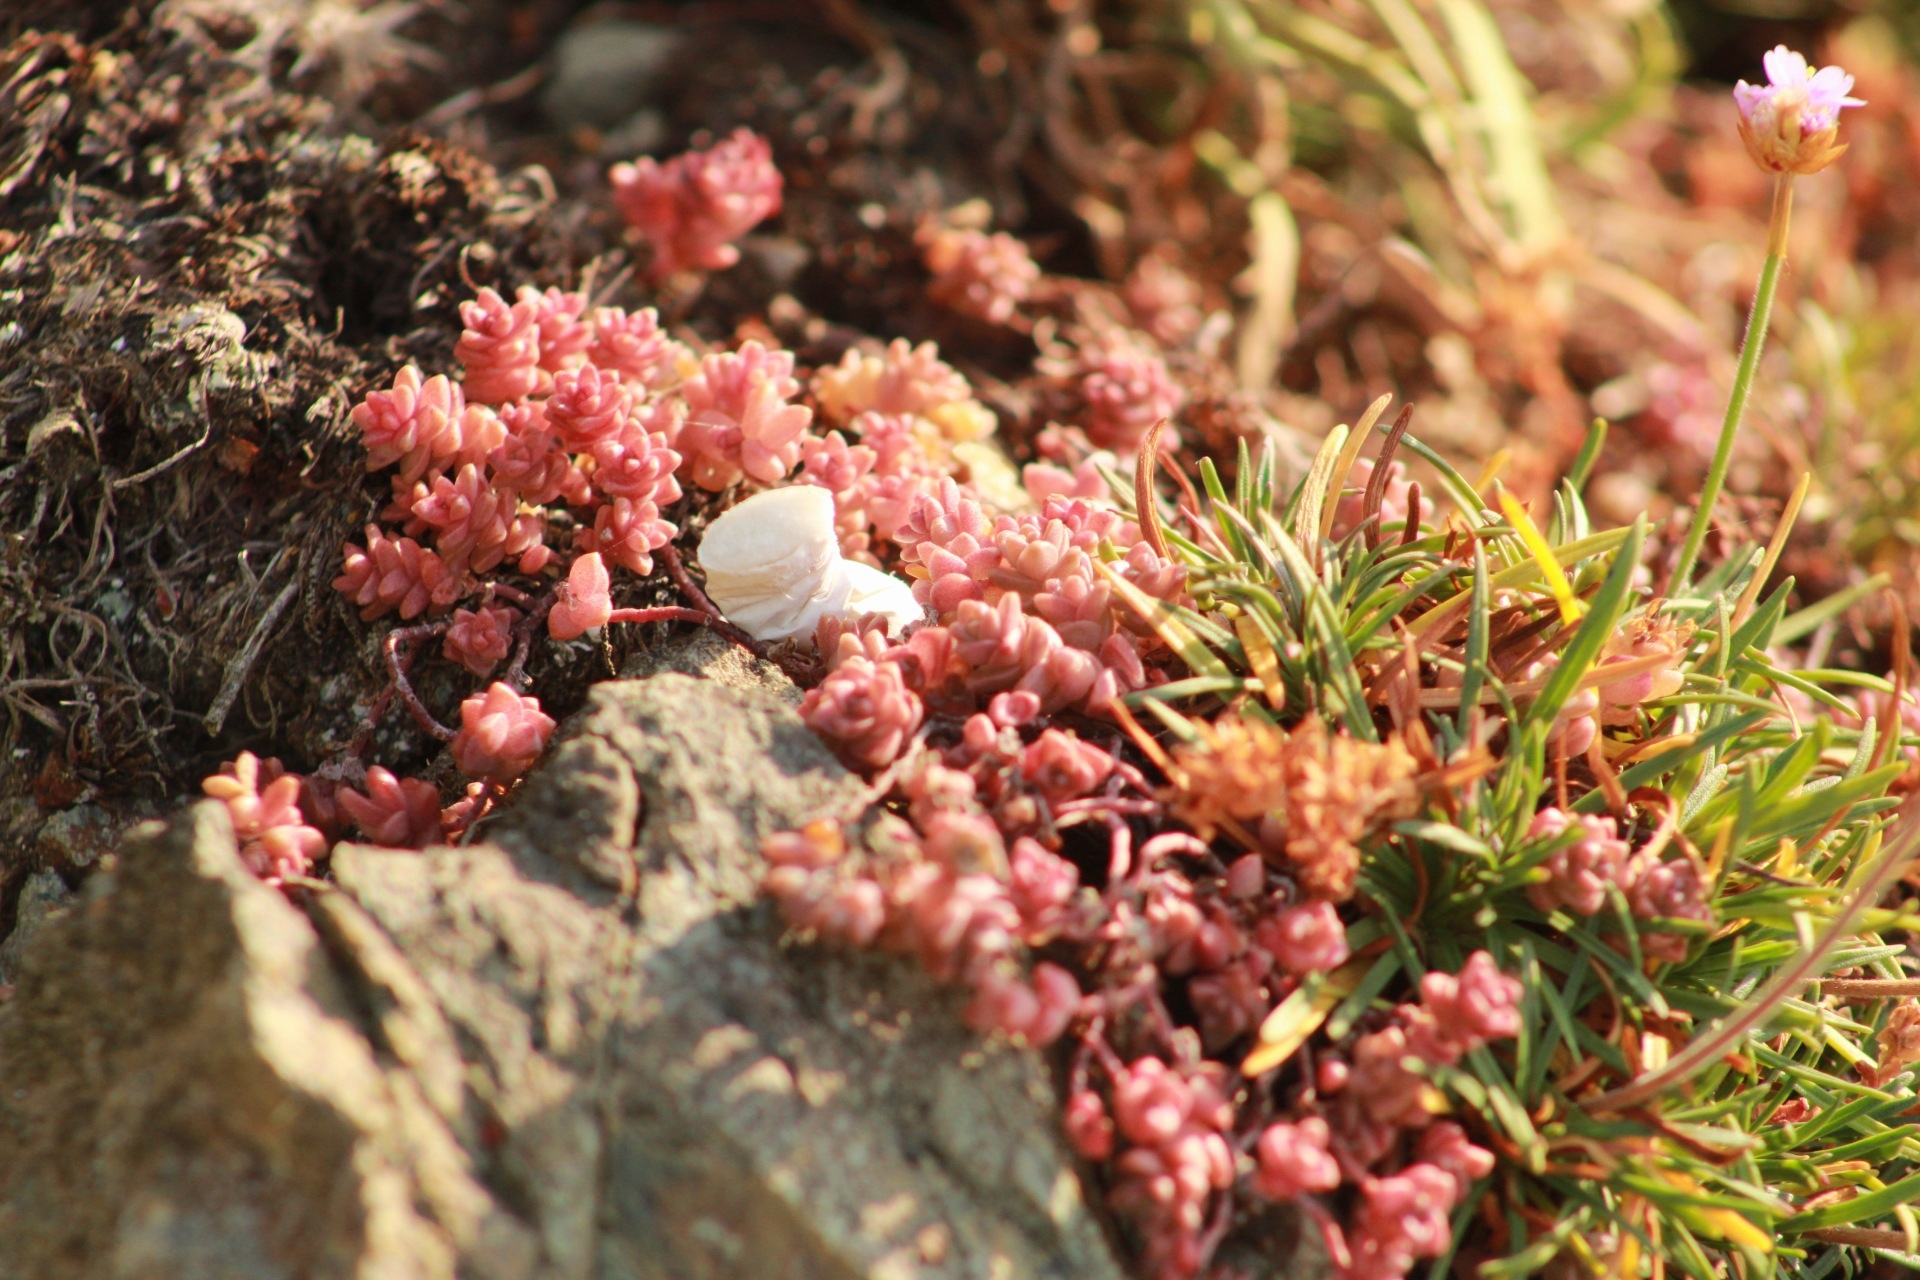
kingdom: Plantae
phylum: Tracheophyta
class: Magnoliopsida
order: Saxifragales
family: Crassulaceae
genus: Sedum
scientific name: Sedum anglicum
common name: English stonecrop
